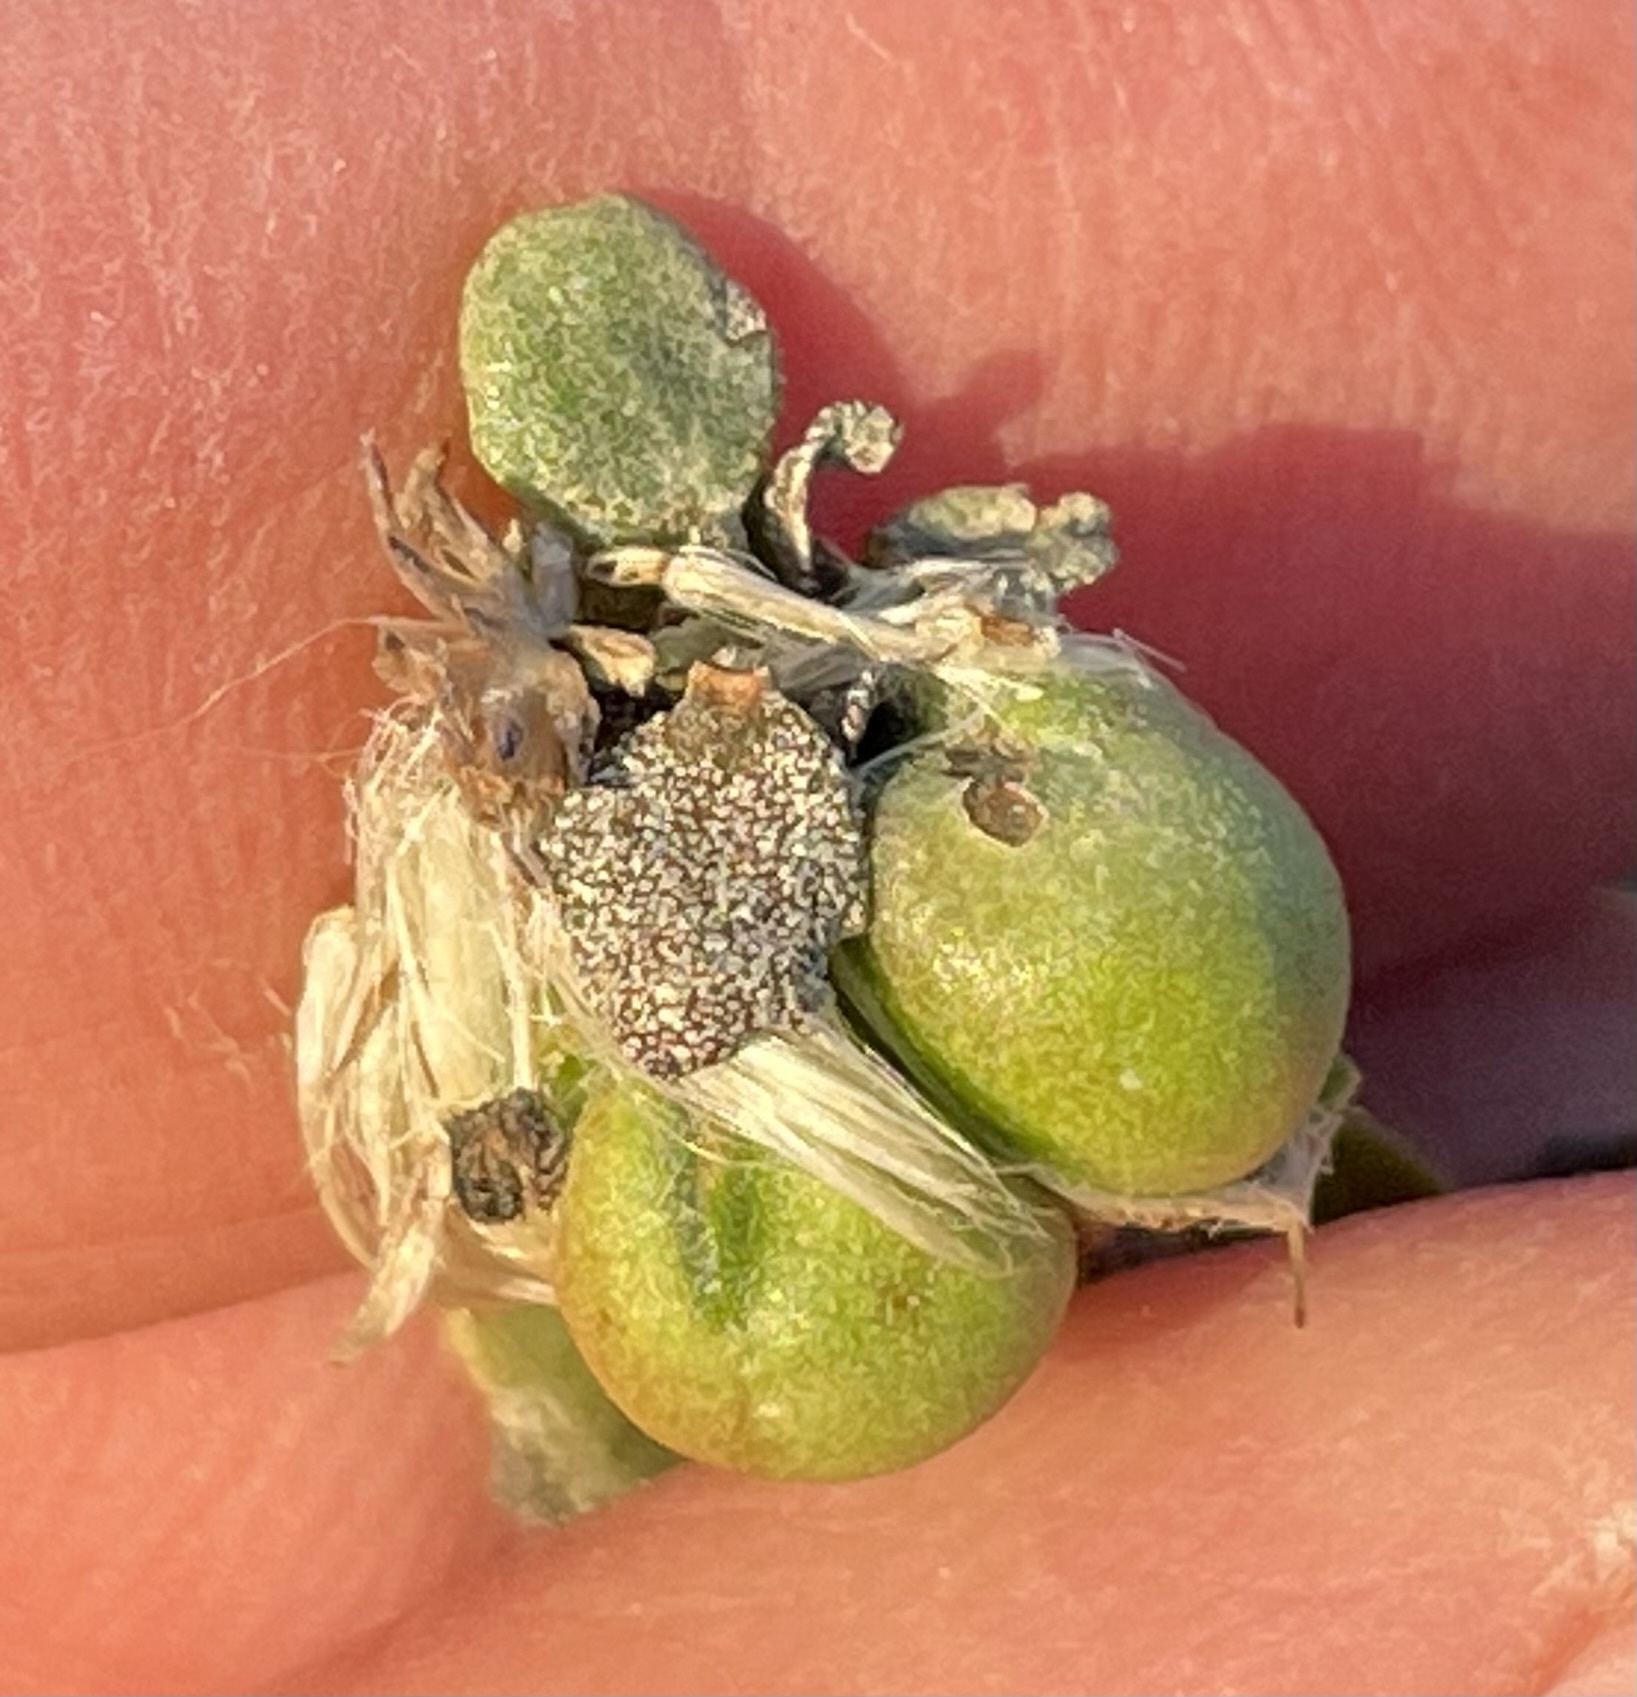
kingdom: Animalia
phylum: Arthropoda
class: Insecta
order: Diptera
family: Cecidomyiidae
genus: Rhopalomyia
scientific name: Rhopalomyia californica
